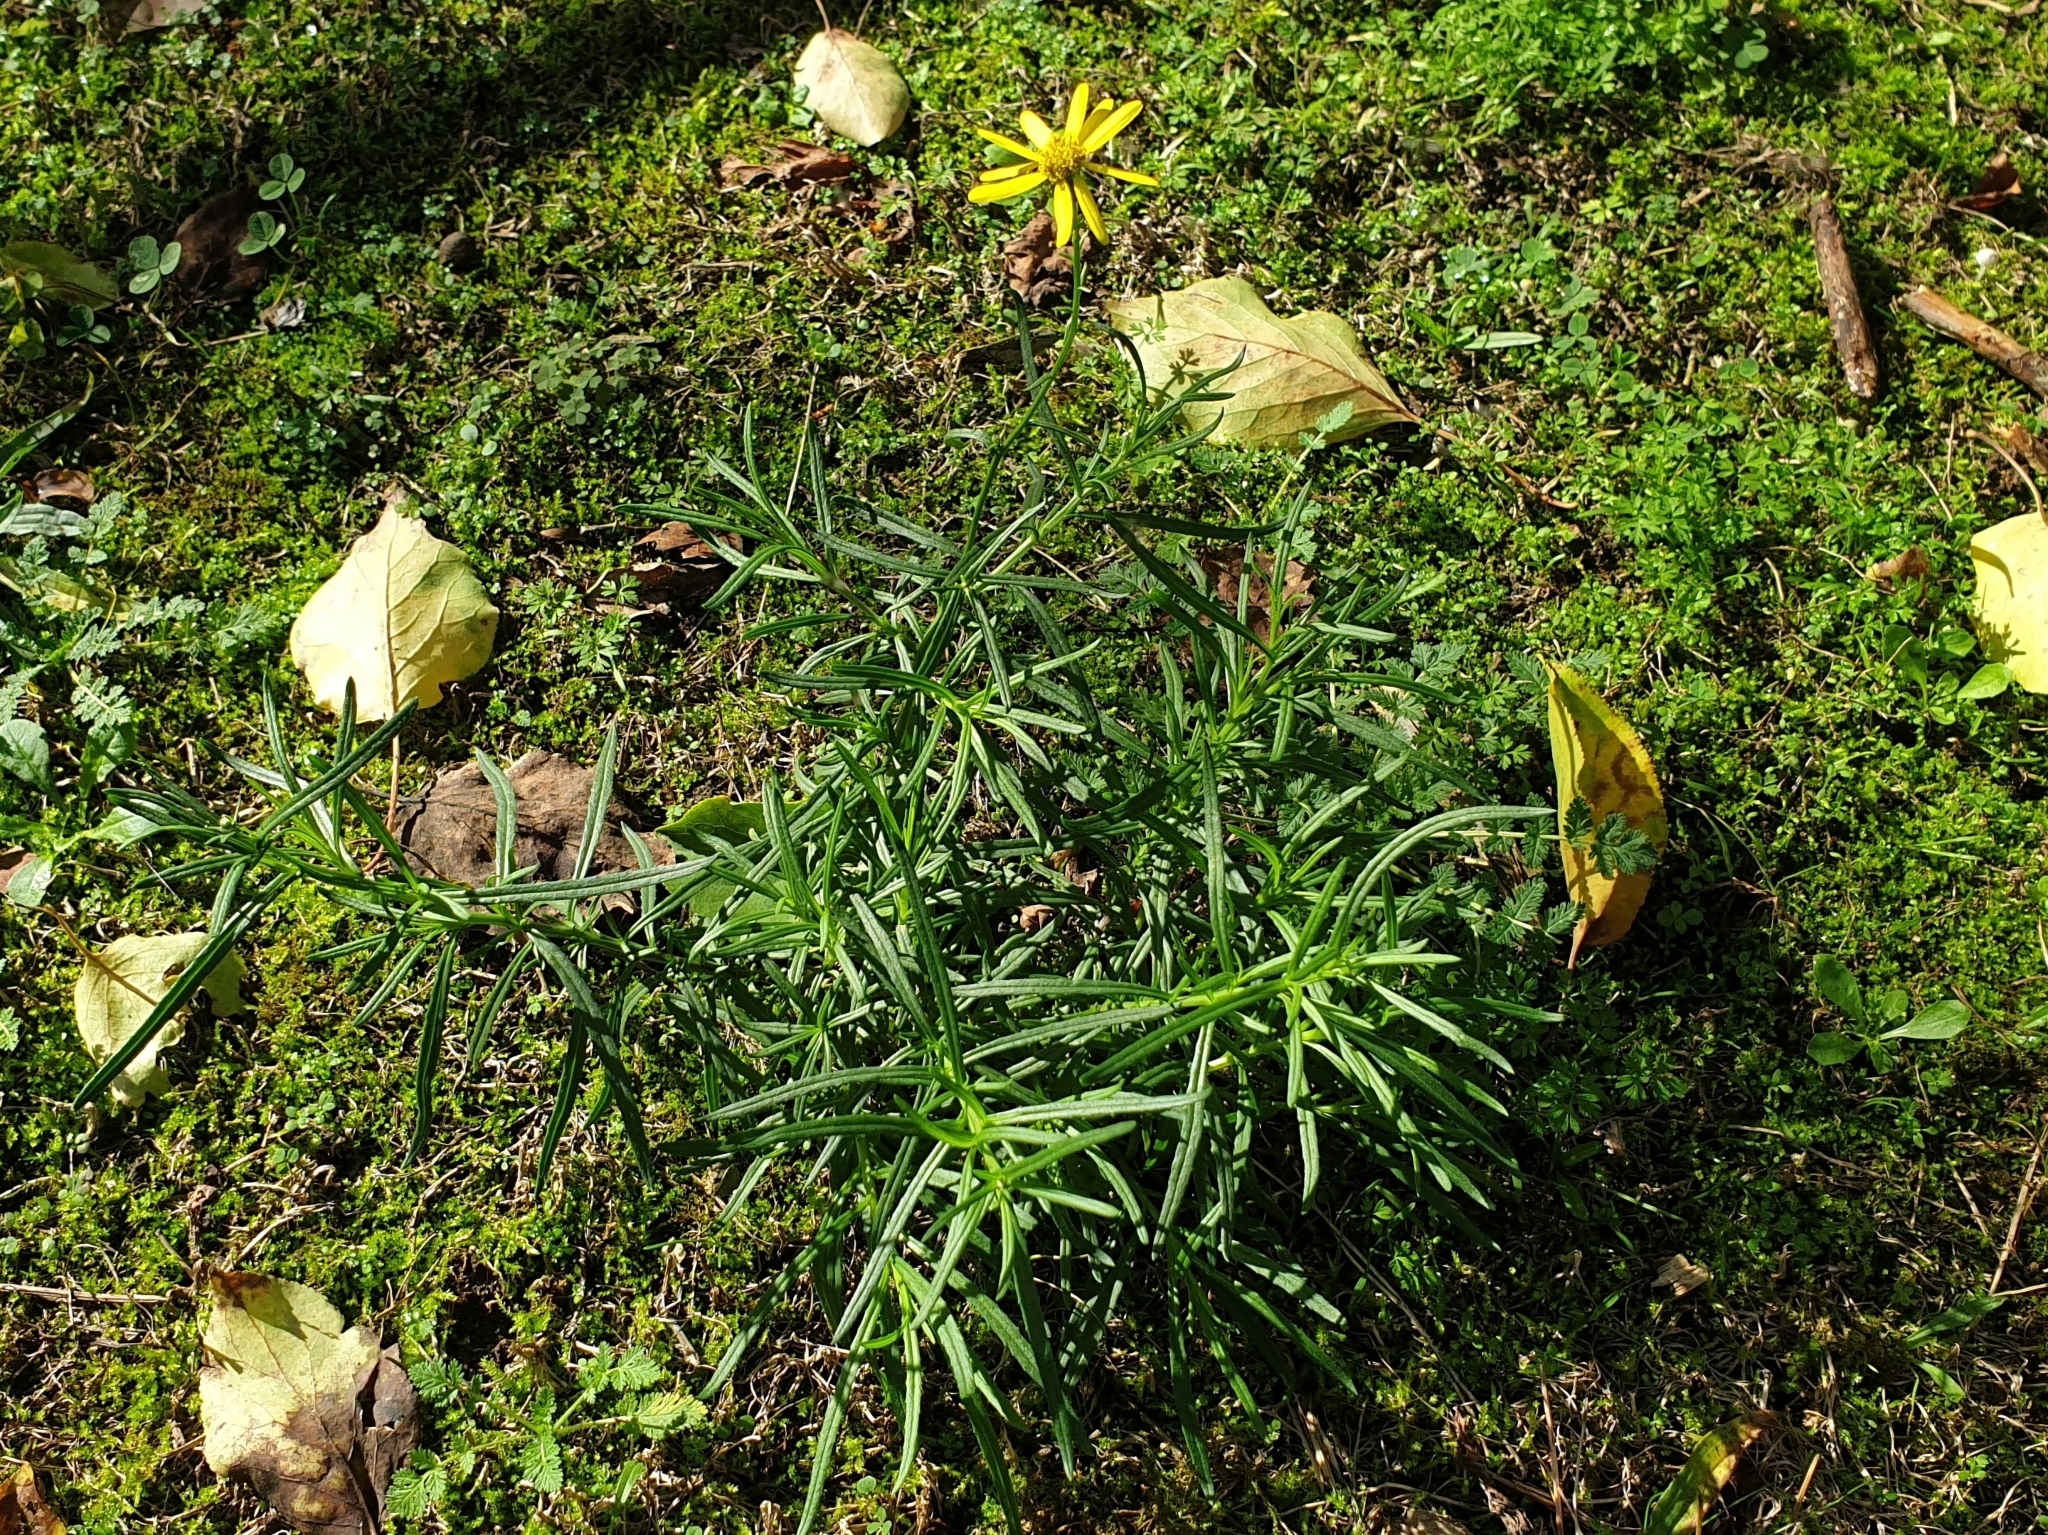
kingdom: Plantae
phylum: Tracheophyta
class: Magnoliopsida
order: Asterales
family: Asteraceae
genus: Senecio
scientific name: Senecio inaequidens
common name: Narrow-leaved ragwort
